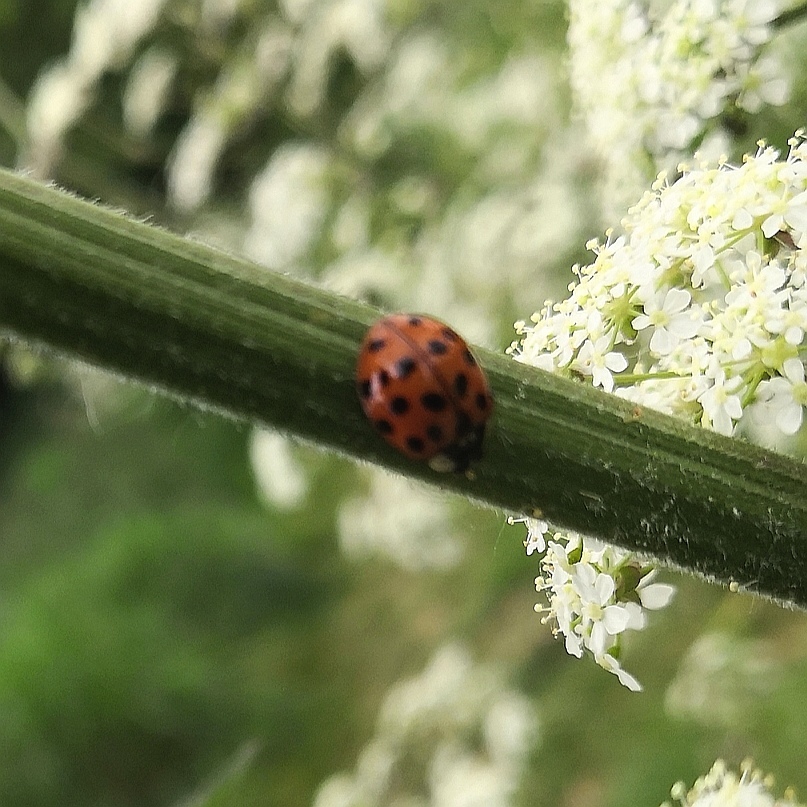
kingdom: Animalia
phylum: Arthropoda
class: Insecta
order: Coleoptera
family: Coccinellidae
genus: Harmonia
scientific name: Harmonia axyridis
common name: Harlequin ladybird
